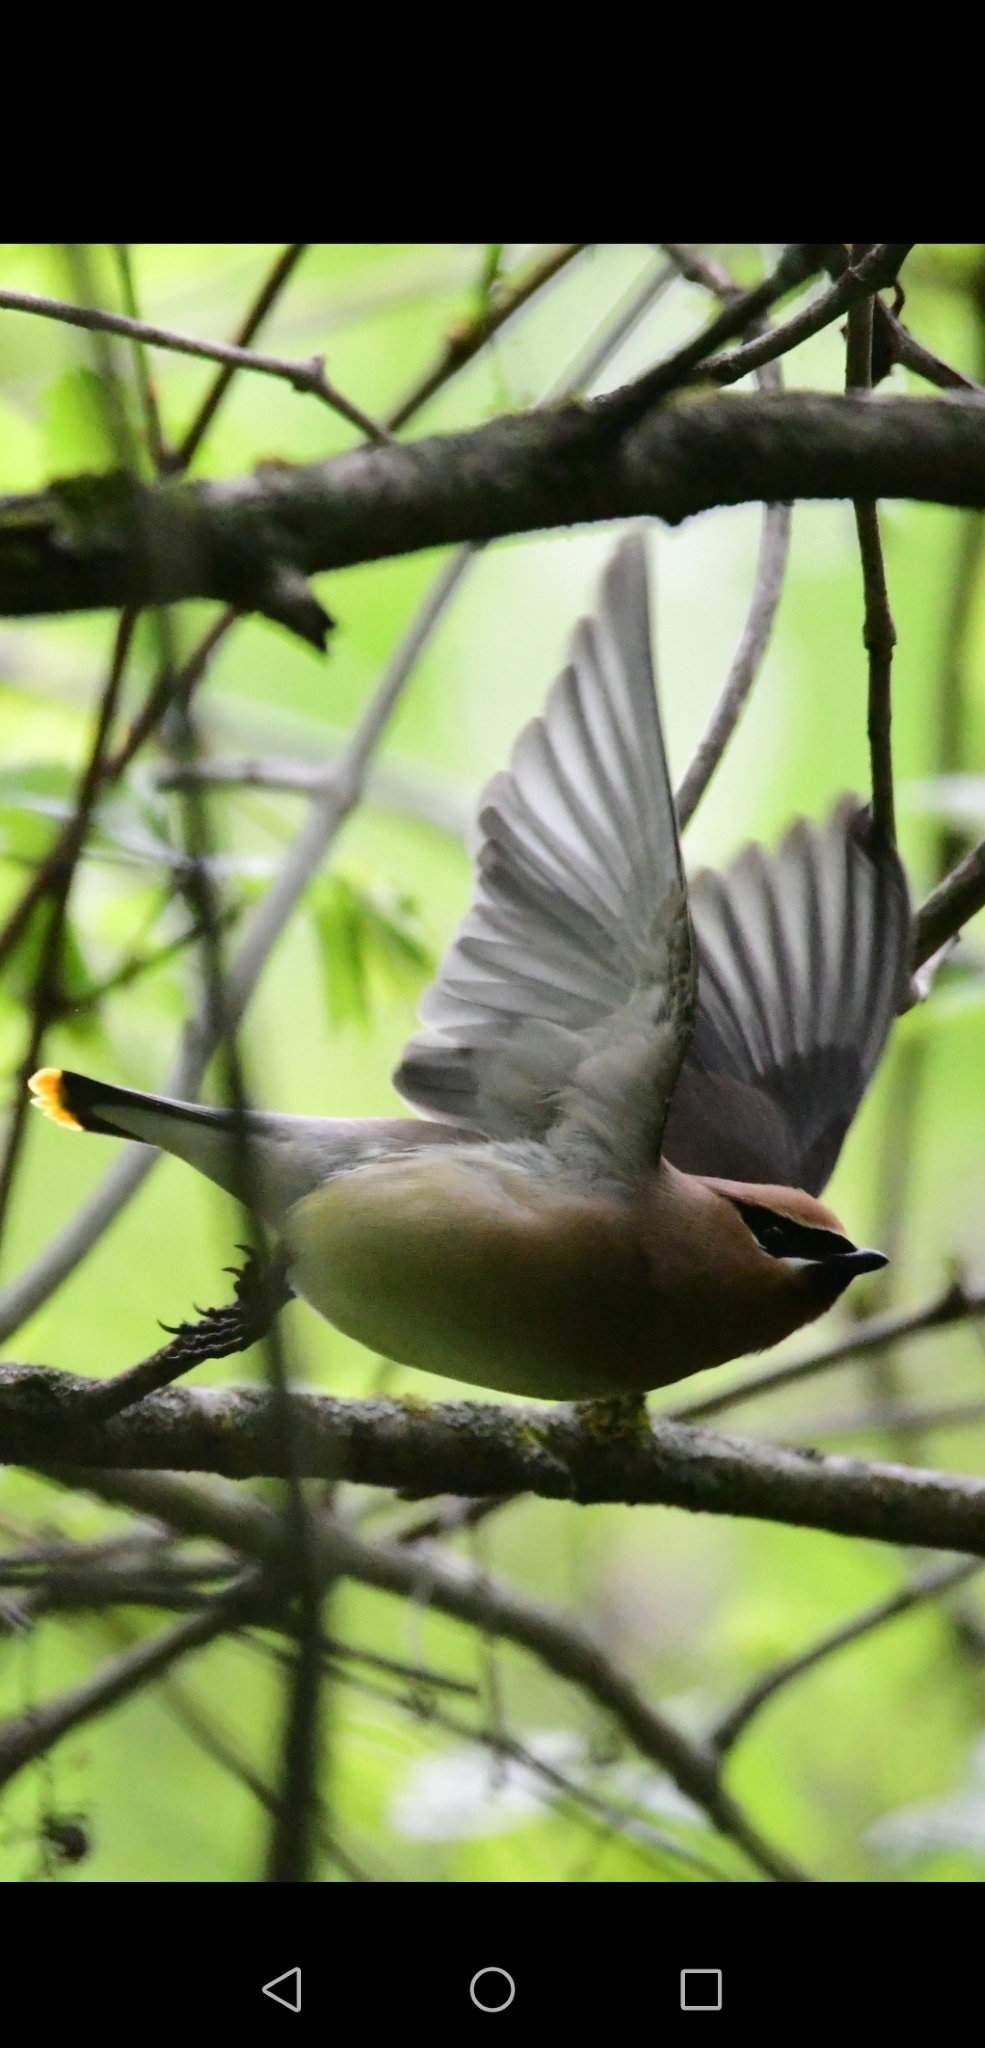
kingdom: Animalia
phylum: Chordata
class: Aves
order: Passeriformes
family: Bombycillidae
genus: Bombycilla
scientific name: Bombycilla cedrorum
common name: Cedar waxwing
